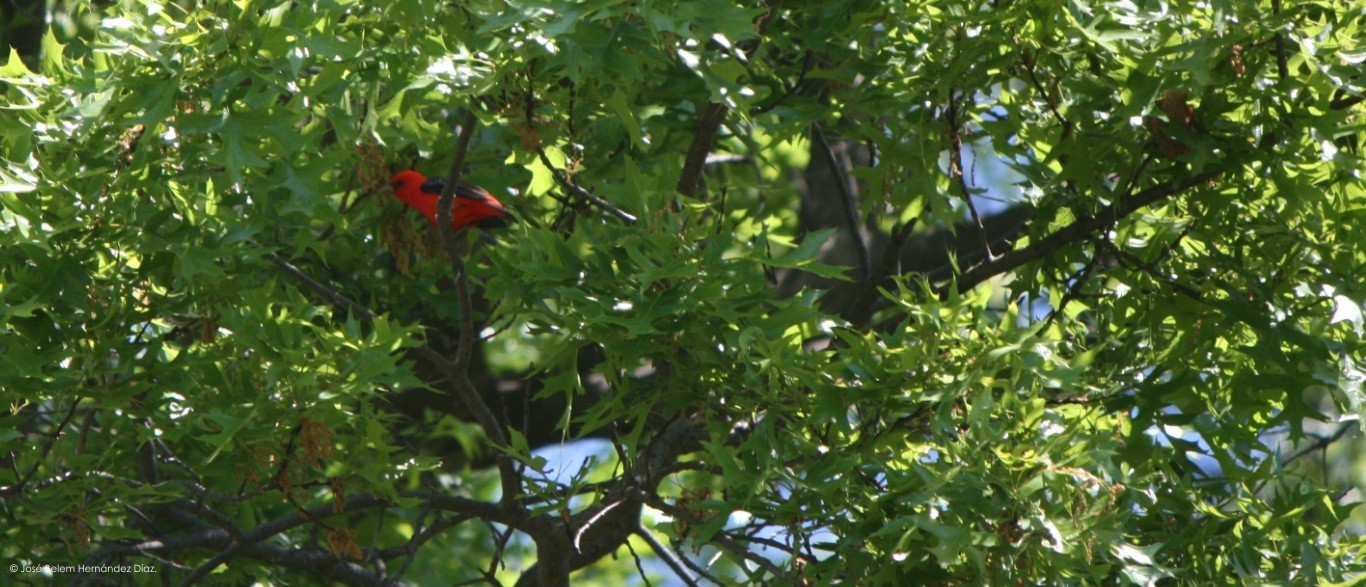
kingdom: Animalia
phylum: Chordata
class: Aves
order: Passeriformes
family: Cardinalidae
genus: Piranga
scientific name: Piranga olivacea
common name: Scarlet tanager
